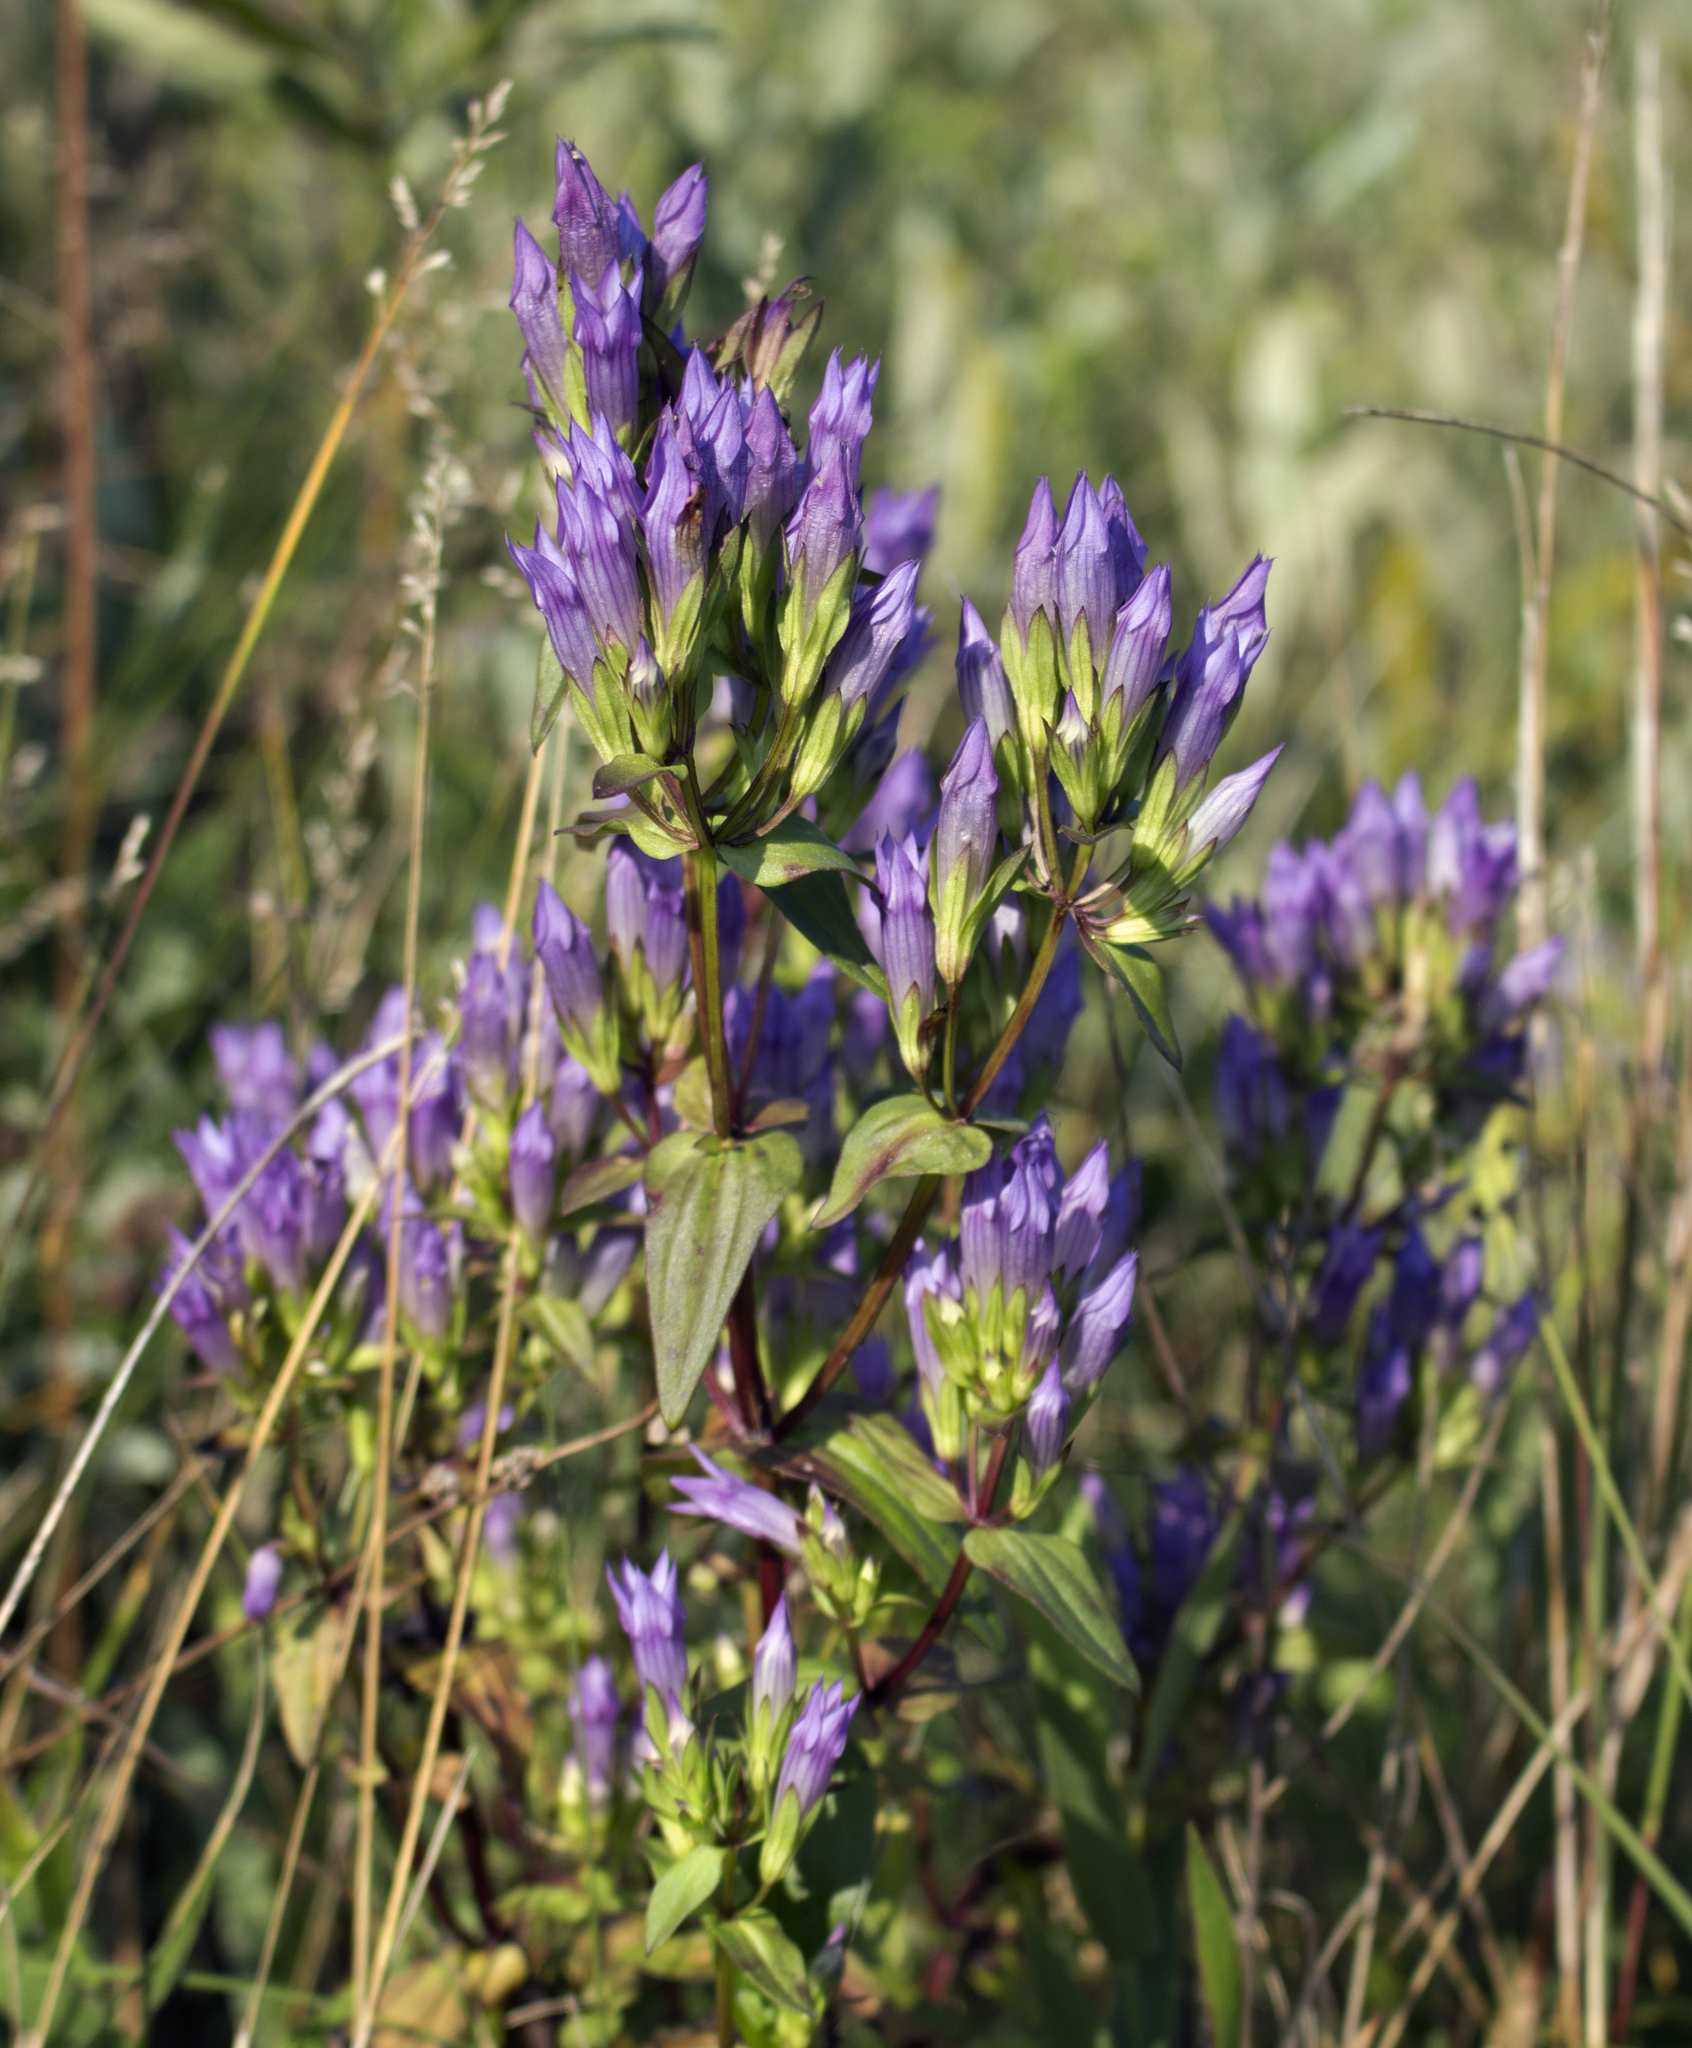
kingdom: Plantae
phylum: Tracheophyta
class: Magnoliopsida
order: Gentianales
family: Gentianaceae
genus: Gentianella
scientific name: Gentianella quinquefolia
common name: Agueweed
